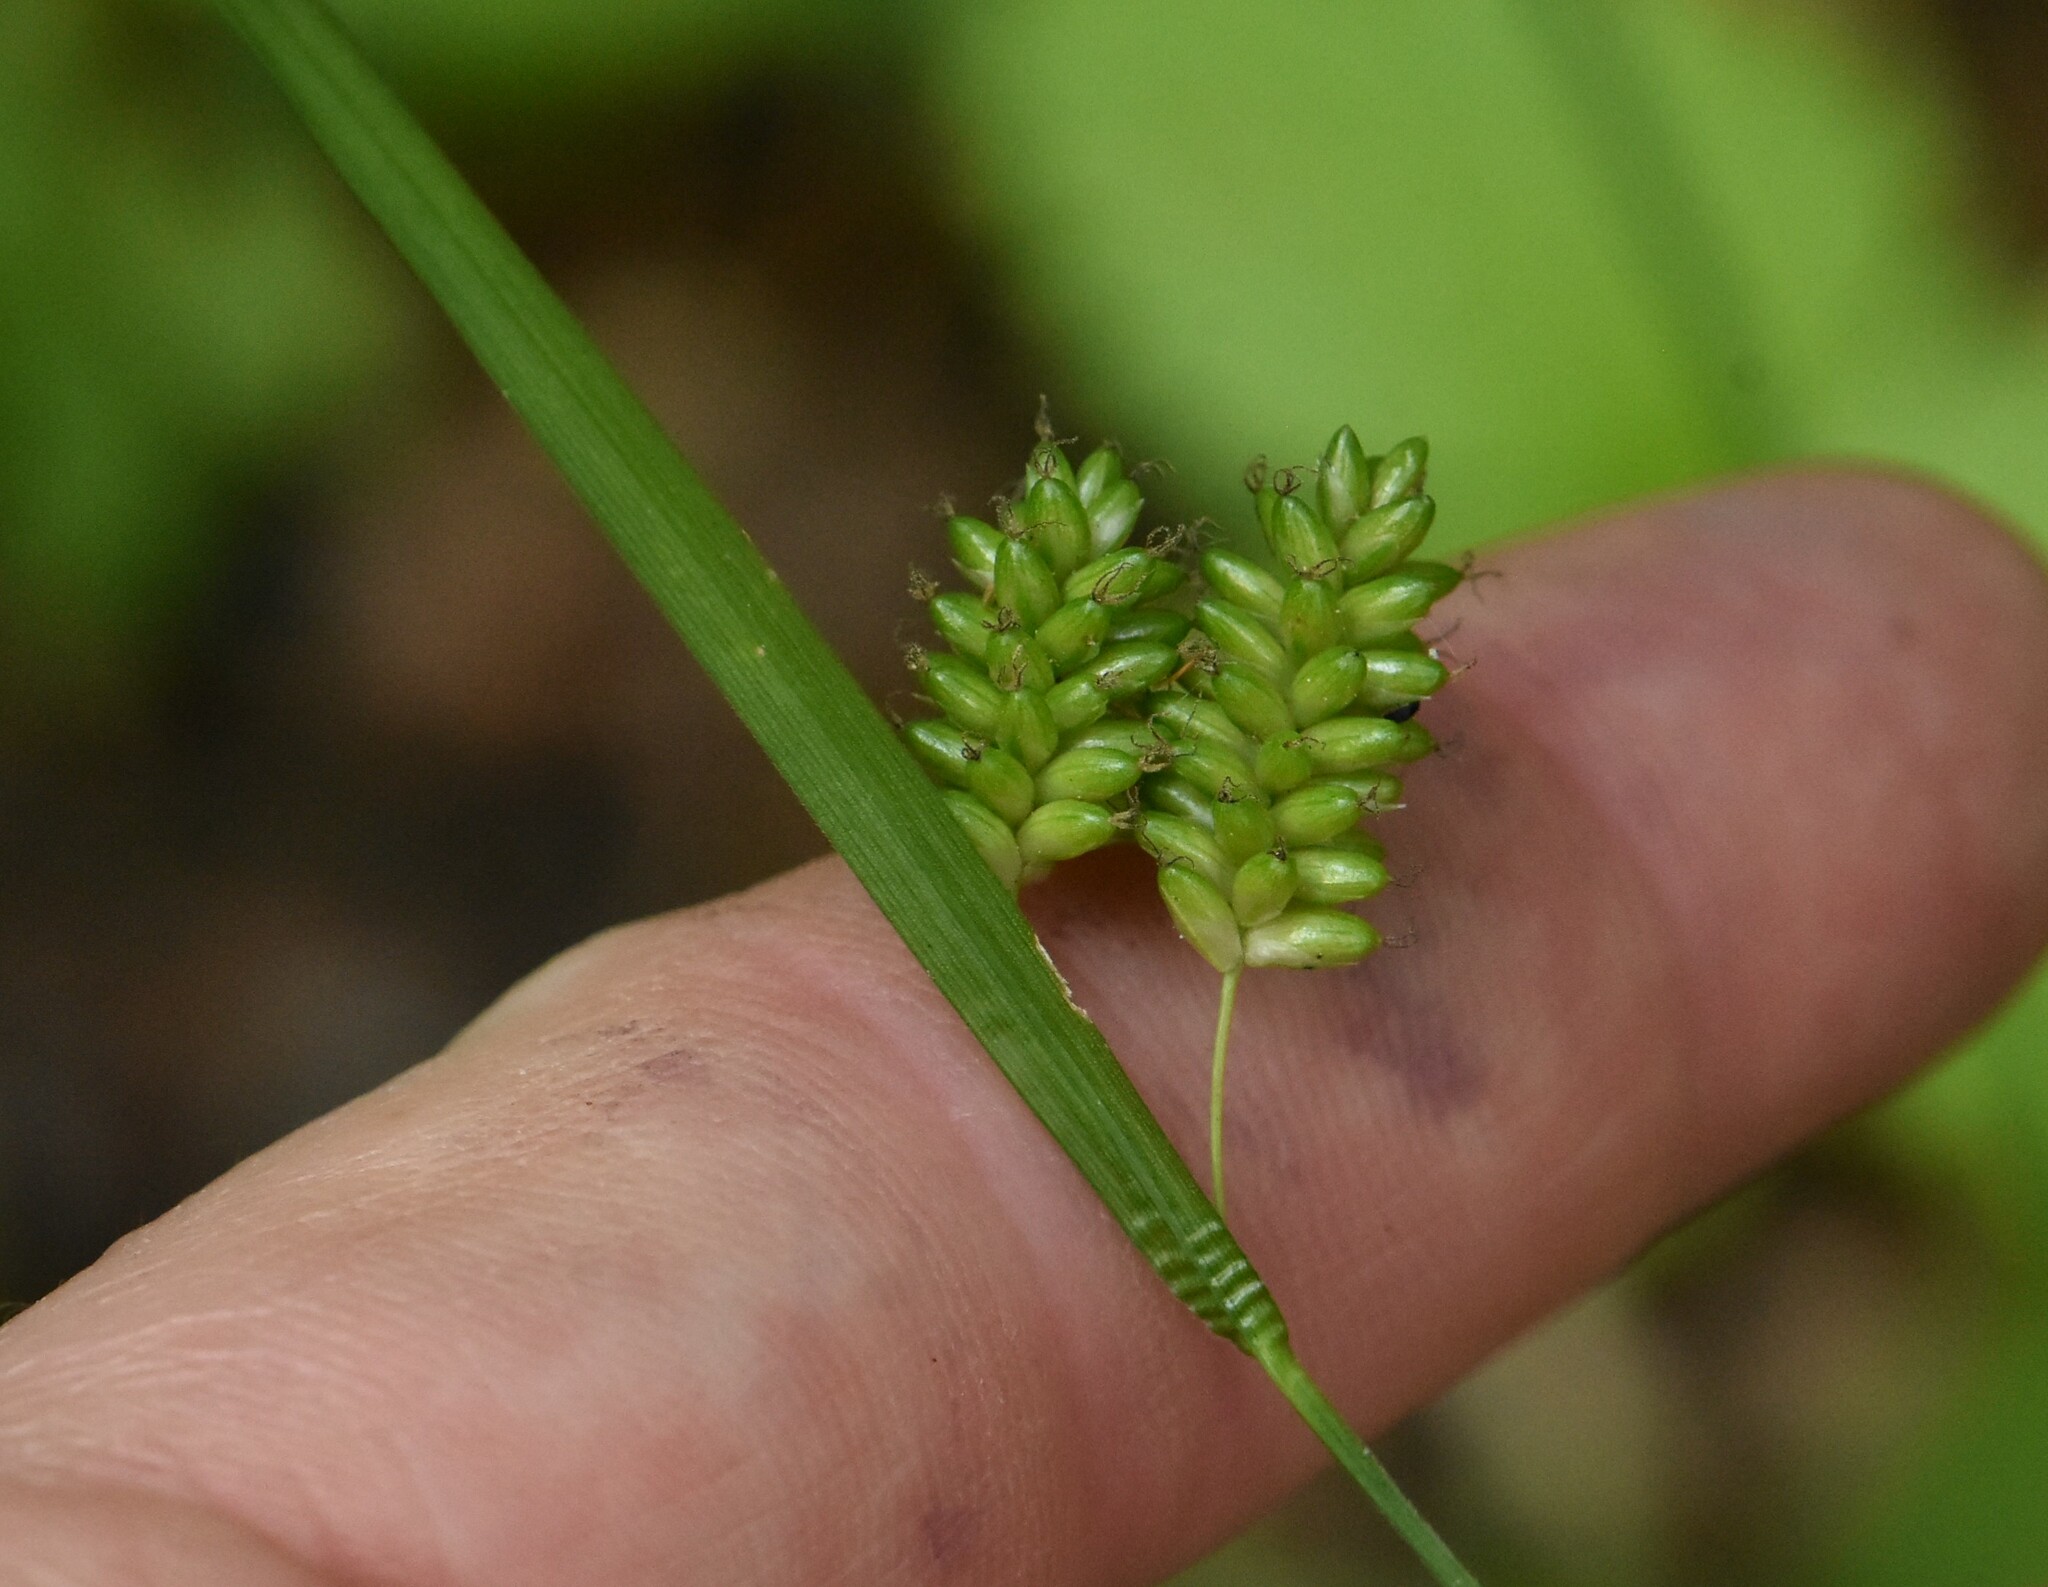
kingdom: Plantae
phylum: Tracheophyta
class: Liliopsida
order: Poales
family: Cyperaceae
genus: Carex
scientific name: Carex pallescens
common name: Pale sedge
